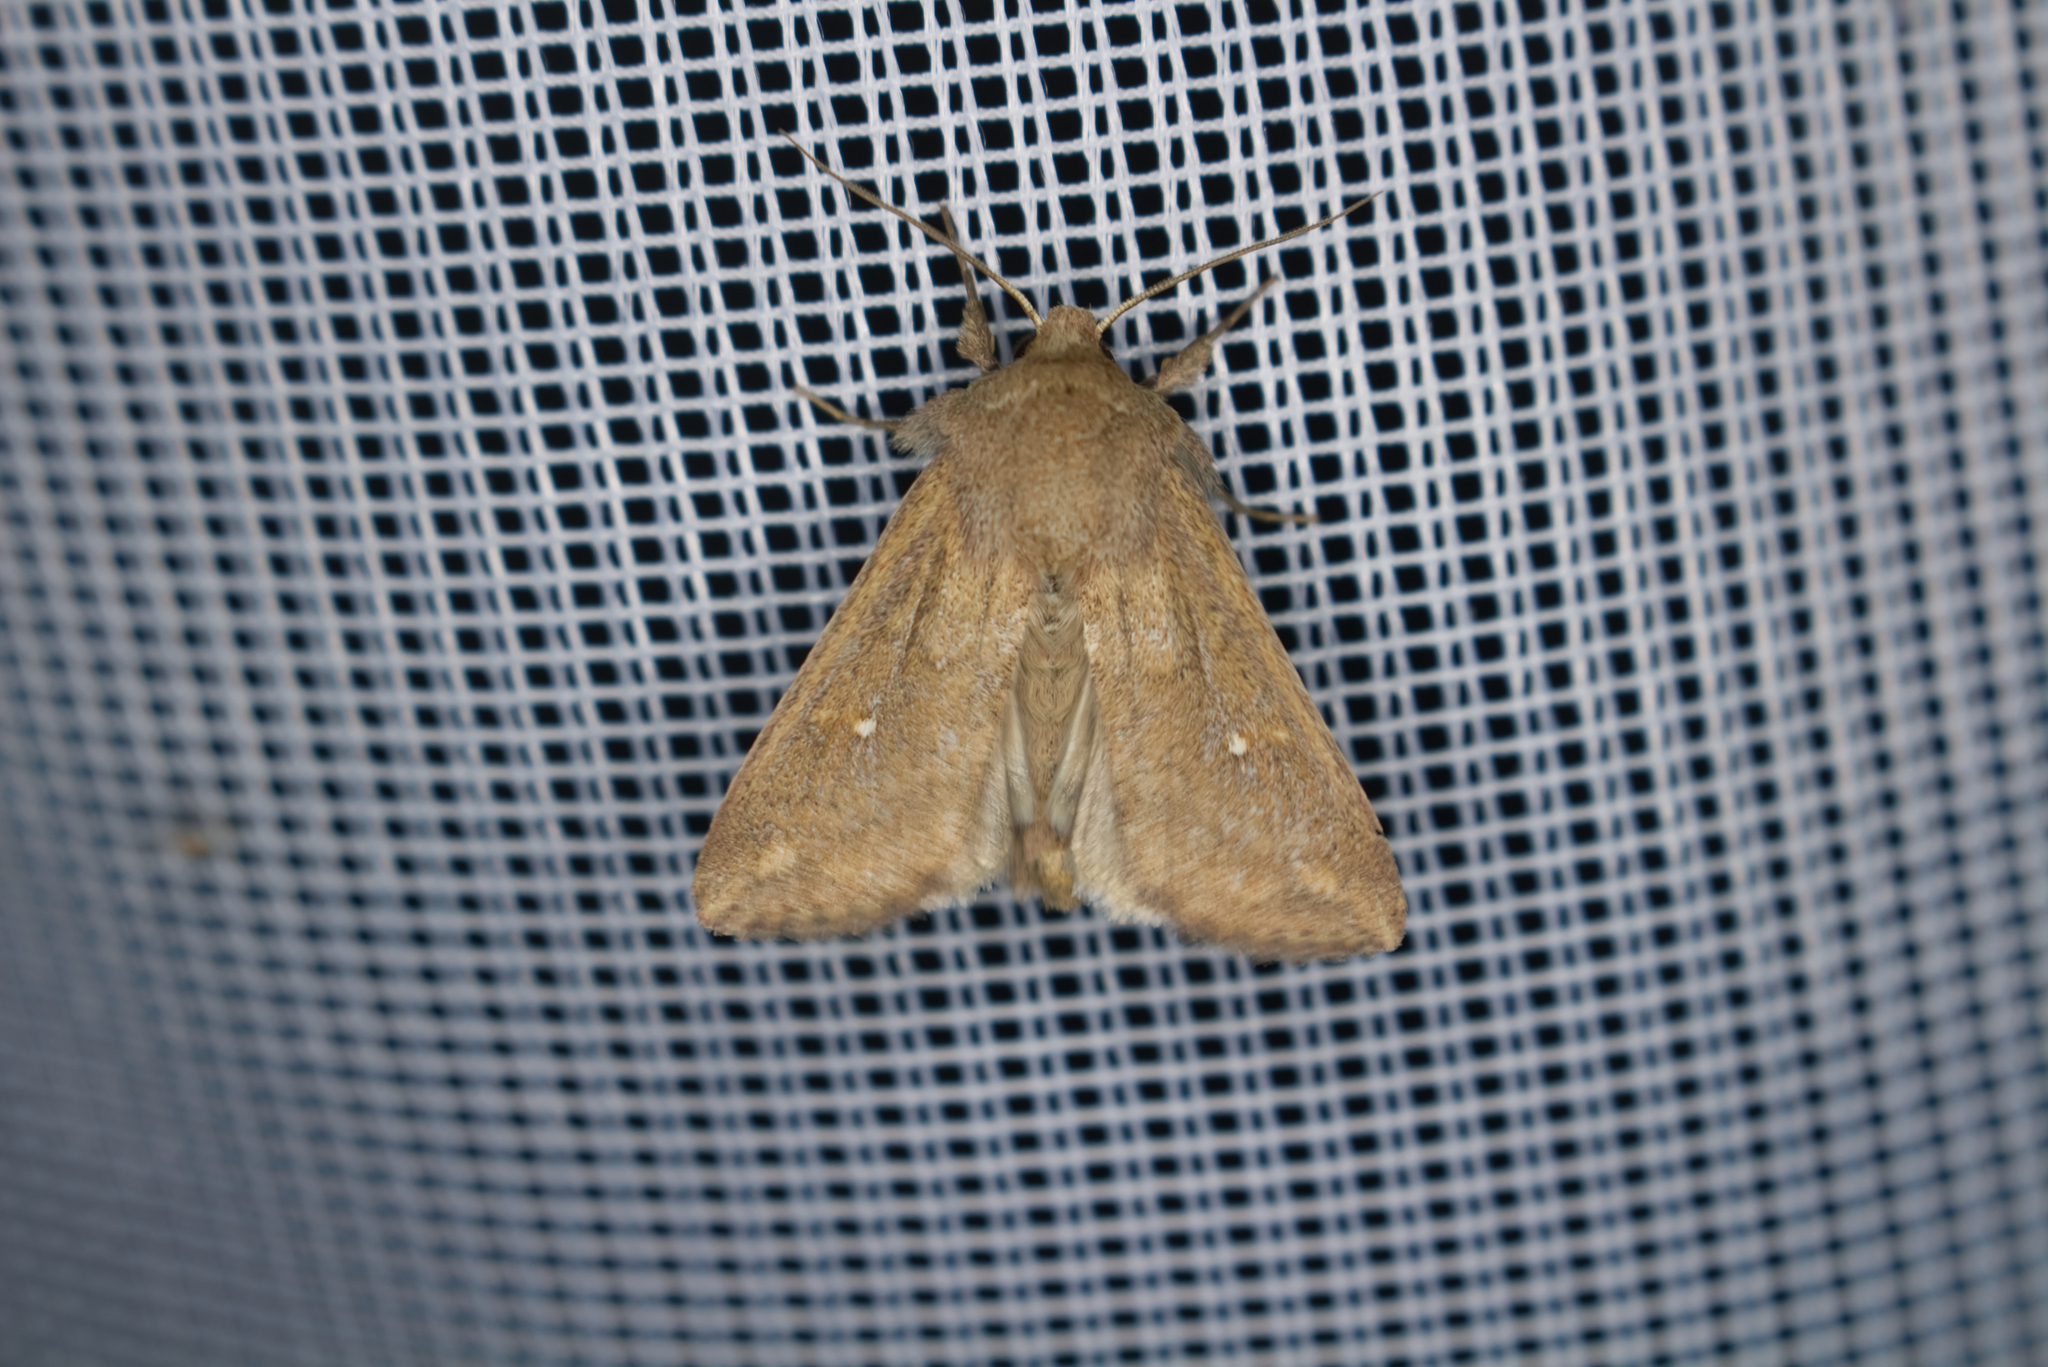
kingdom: Animalia
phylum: Arthropoda
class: Insecta
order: Lepidoptera
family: Noctuidae
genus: Mythimna
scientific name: Mythimna albipuncta
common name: White-point
